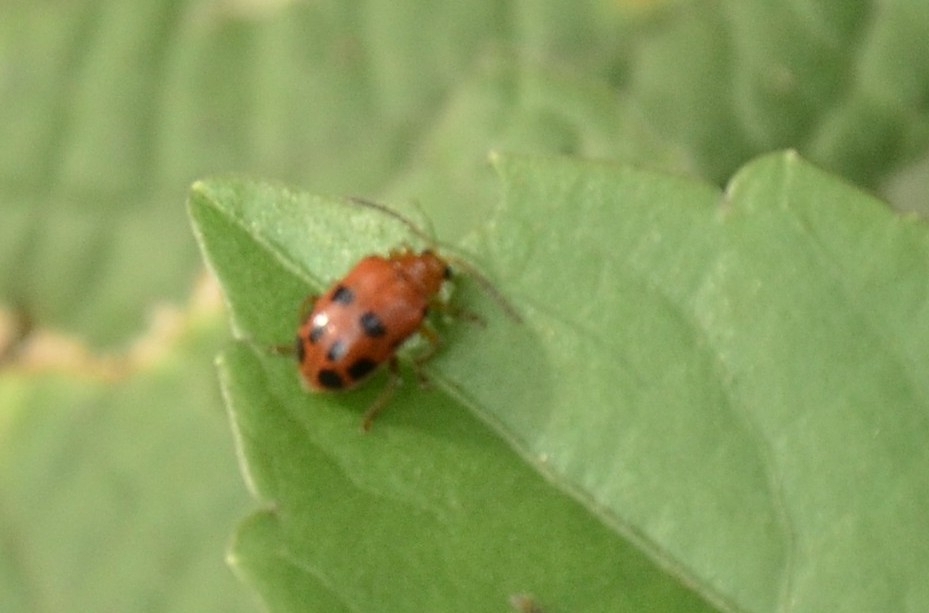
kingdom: Animalia
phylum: Arthropoda
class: Insecta
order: Coleoptera
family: Chrysomelidae
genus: Sphenoraia
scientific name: Sphenoraia
